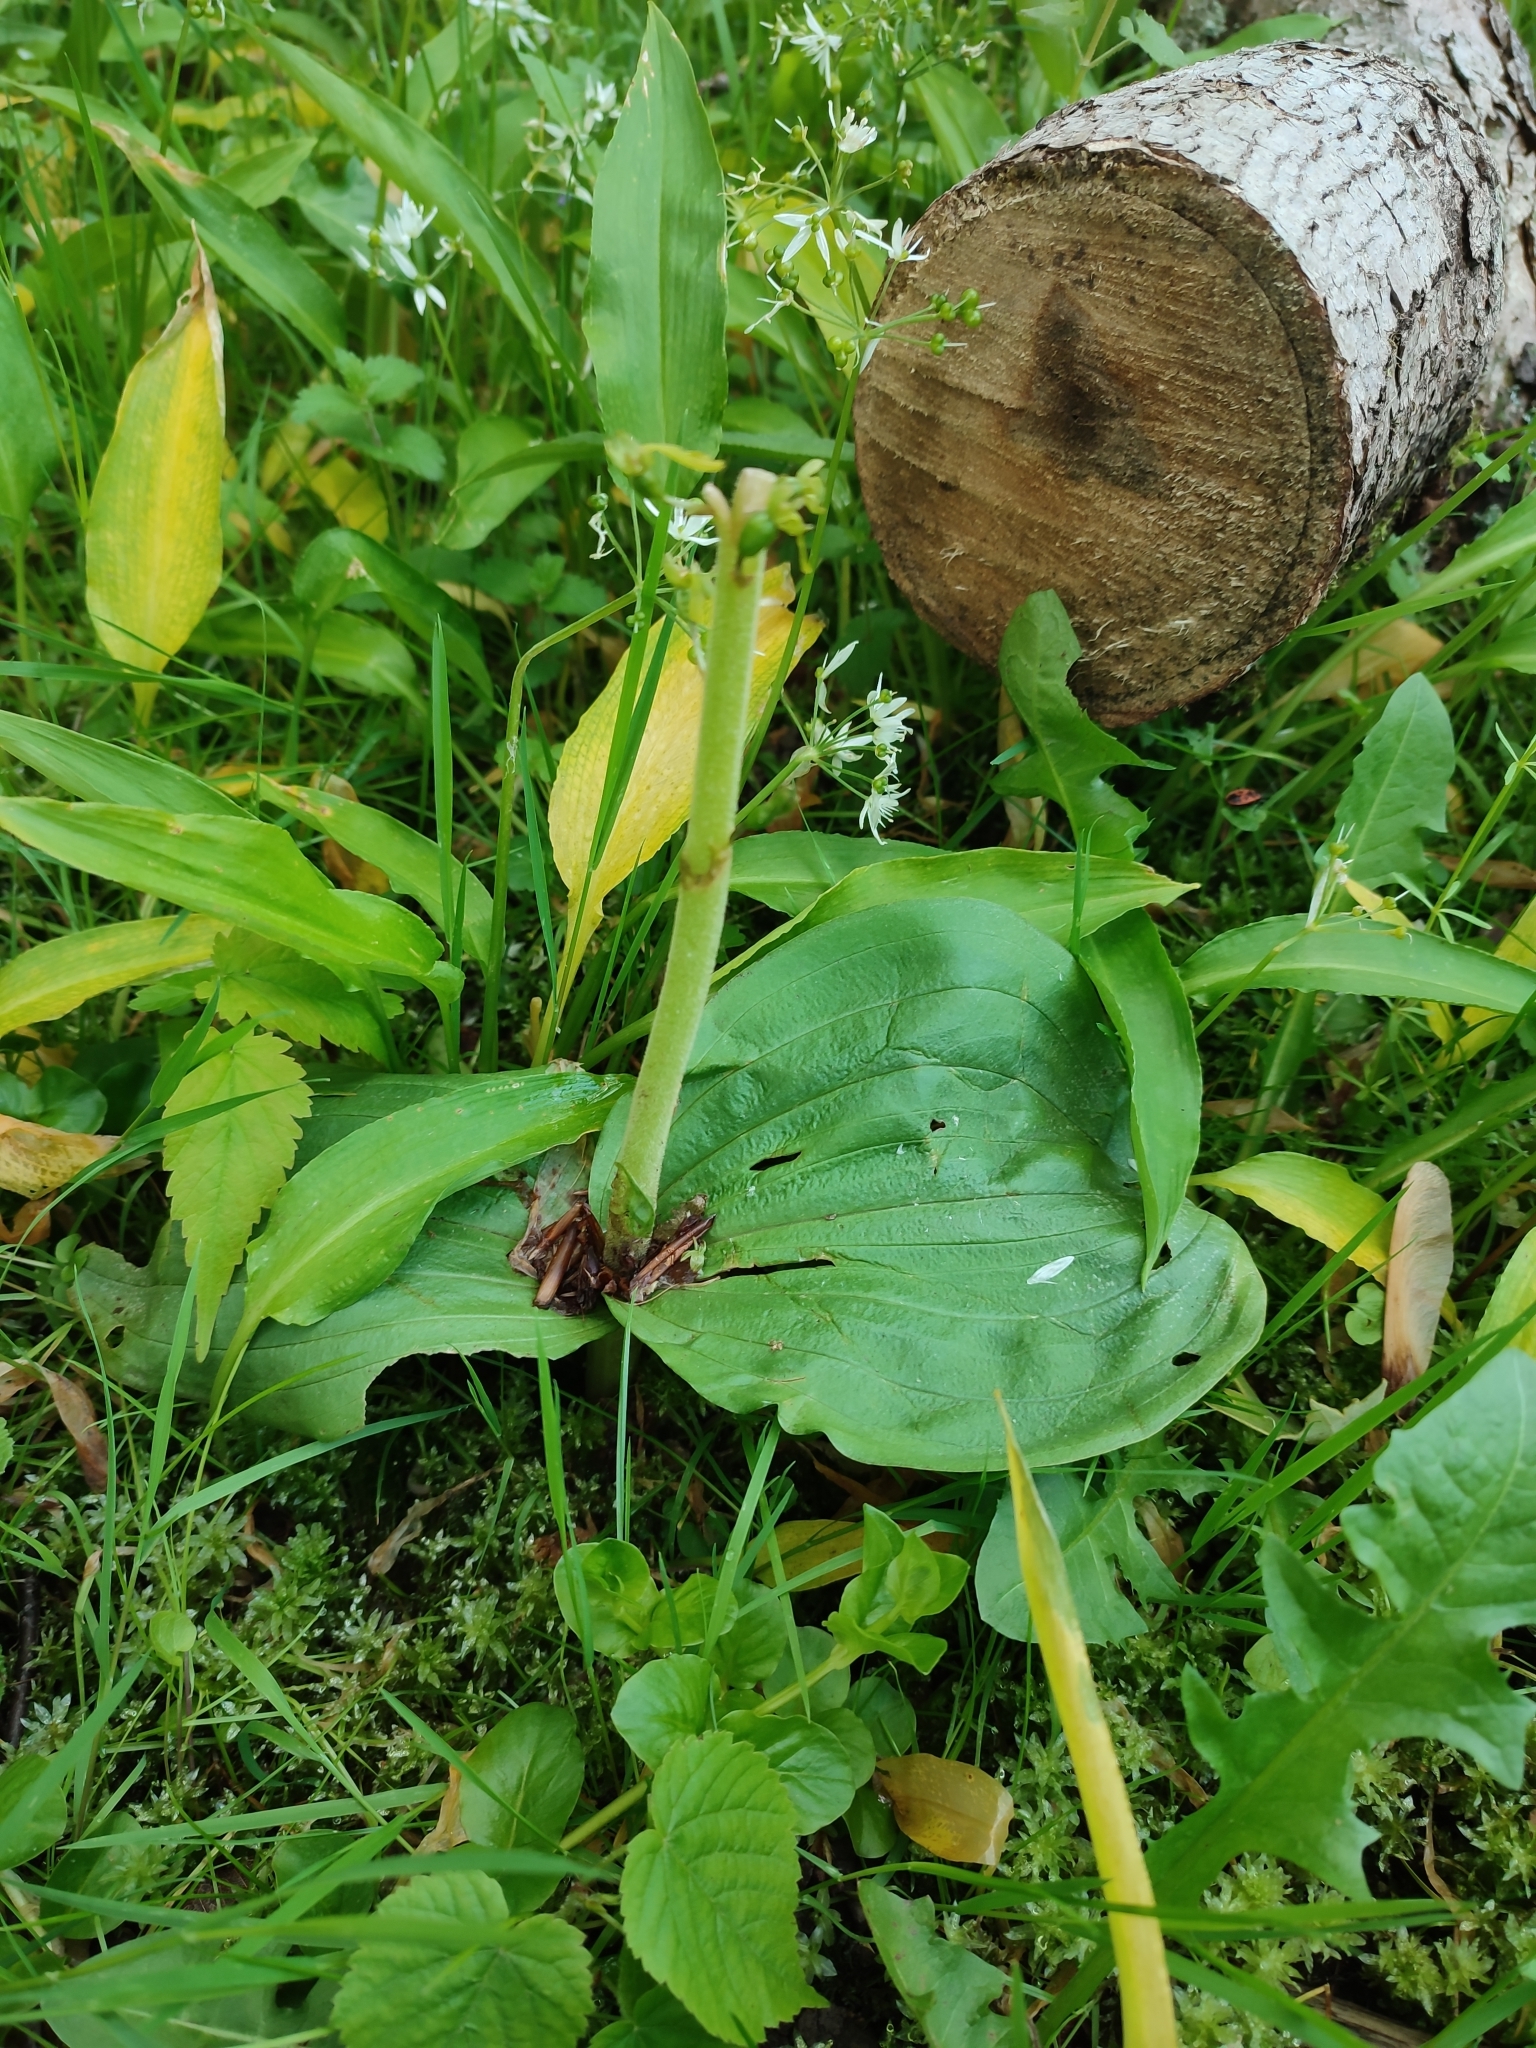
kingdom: Plantae
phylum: Tracheophyta
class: Liliopsida
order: Asparagales
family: Orchidaceae
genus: Neottia
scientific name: Neottia ovata
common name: Common twayblade
